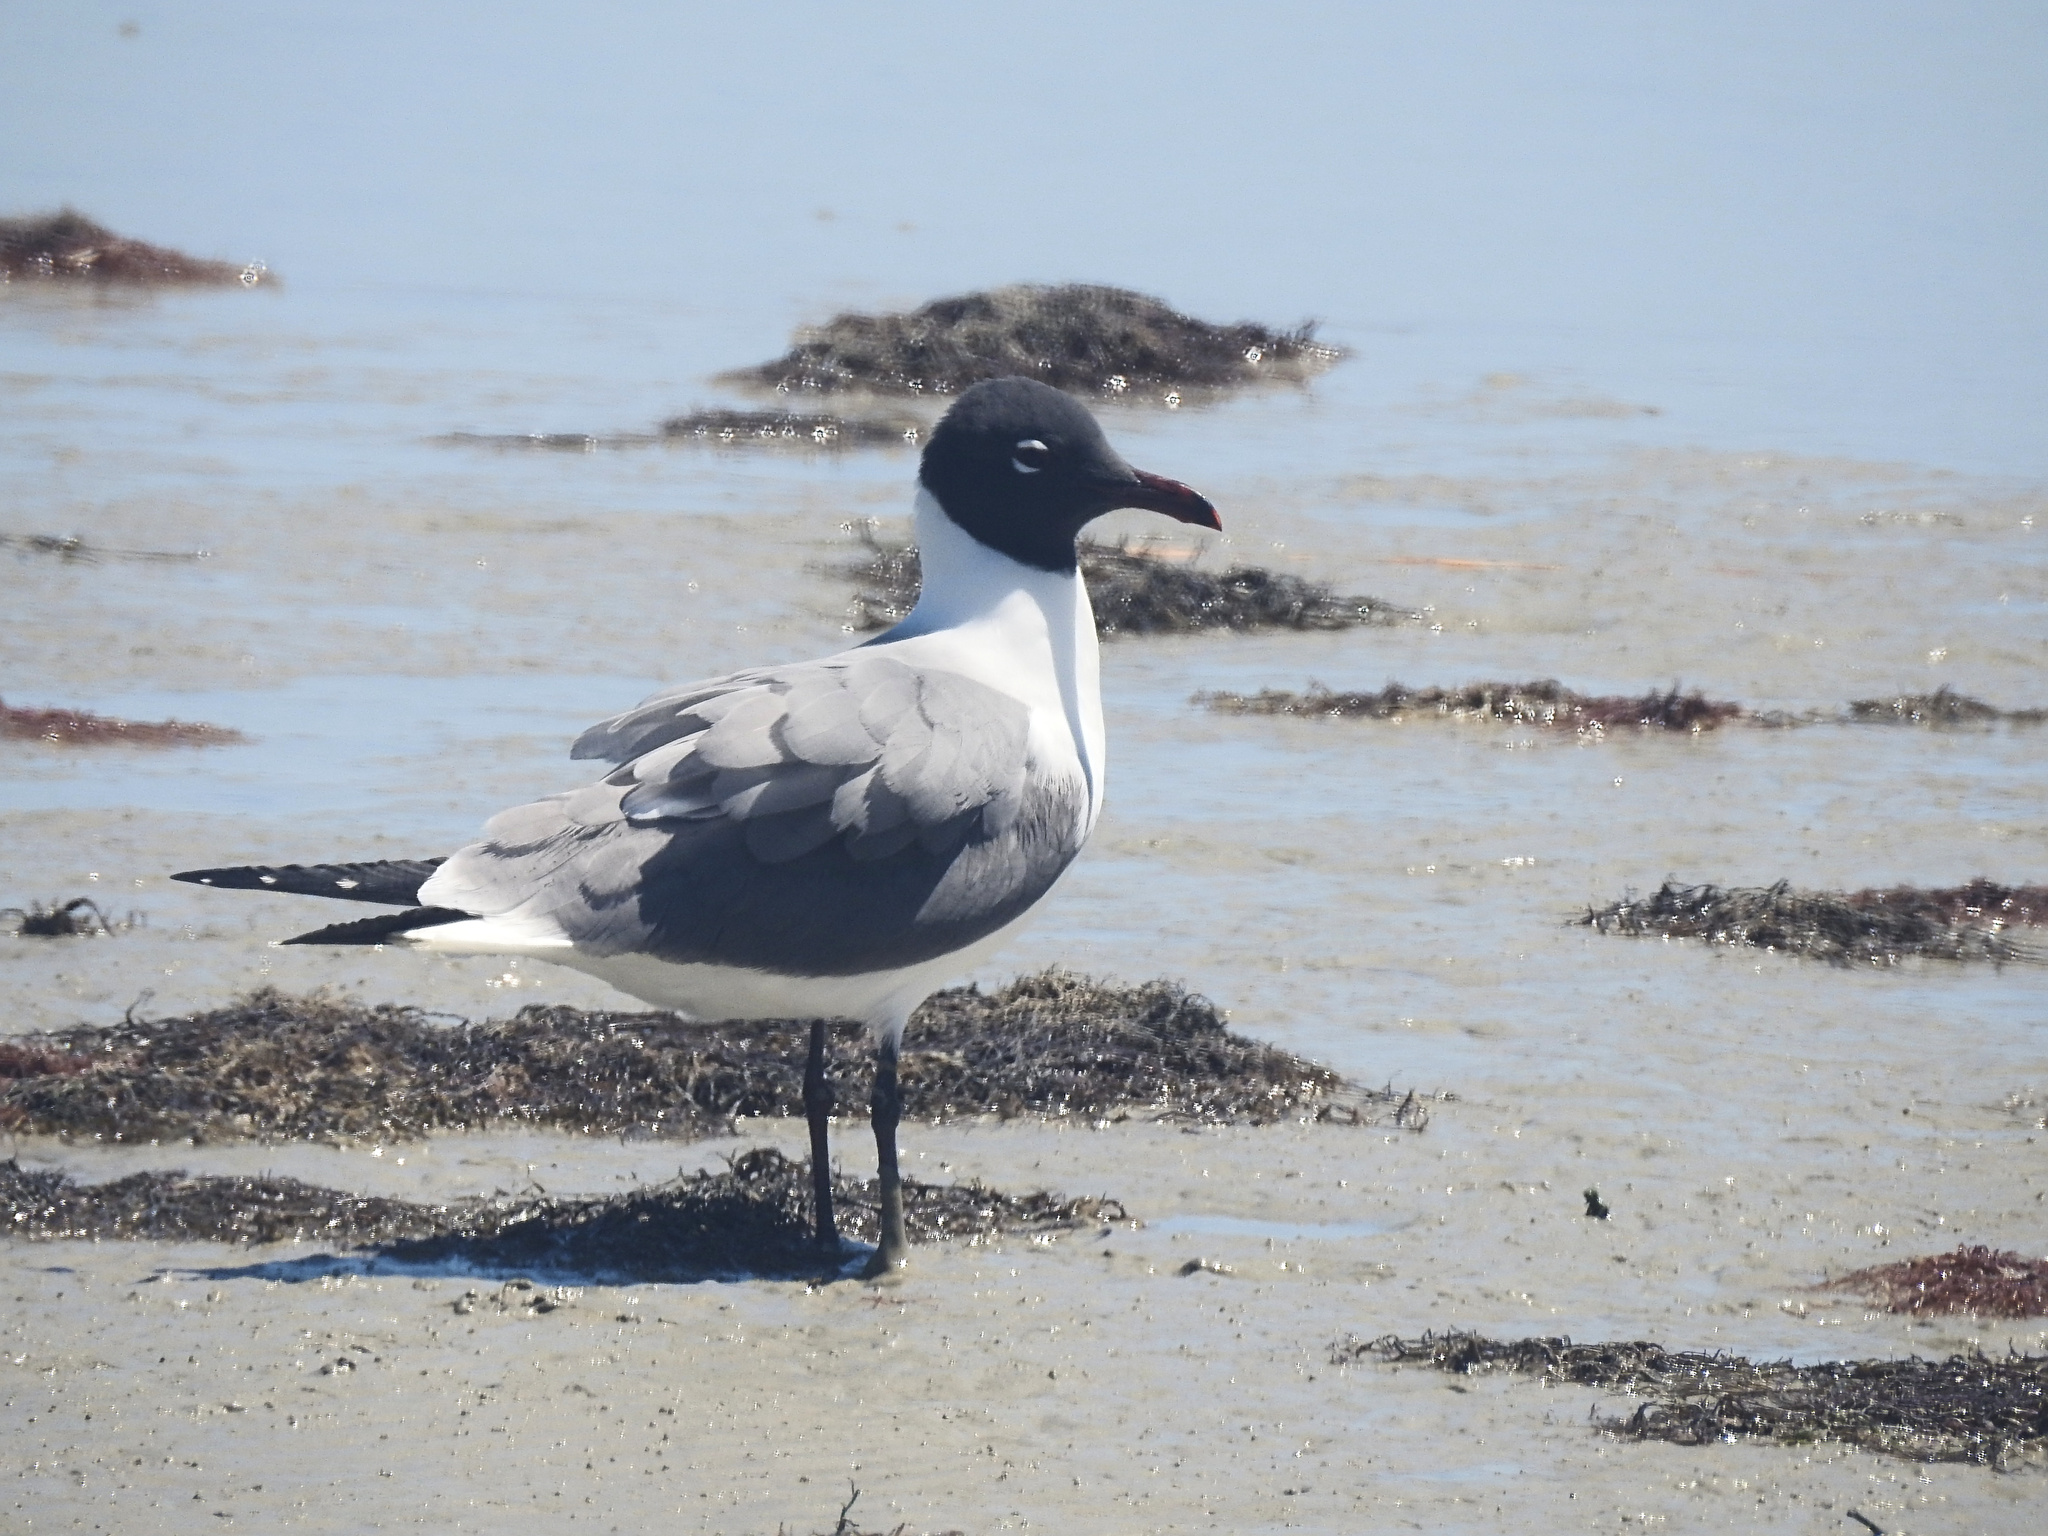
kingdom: Animalia
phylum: Chordata
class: Aves
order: Charadriiformes
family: Laridae
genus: Leucophaeus
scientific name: Leucophaeus atricilla
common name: Laughing gull
